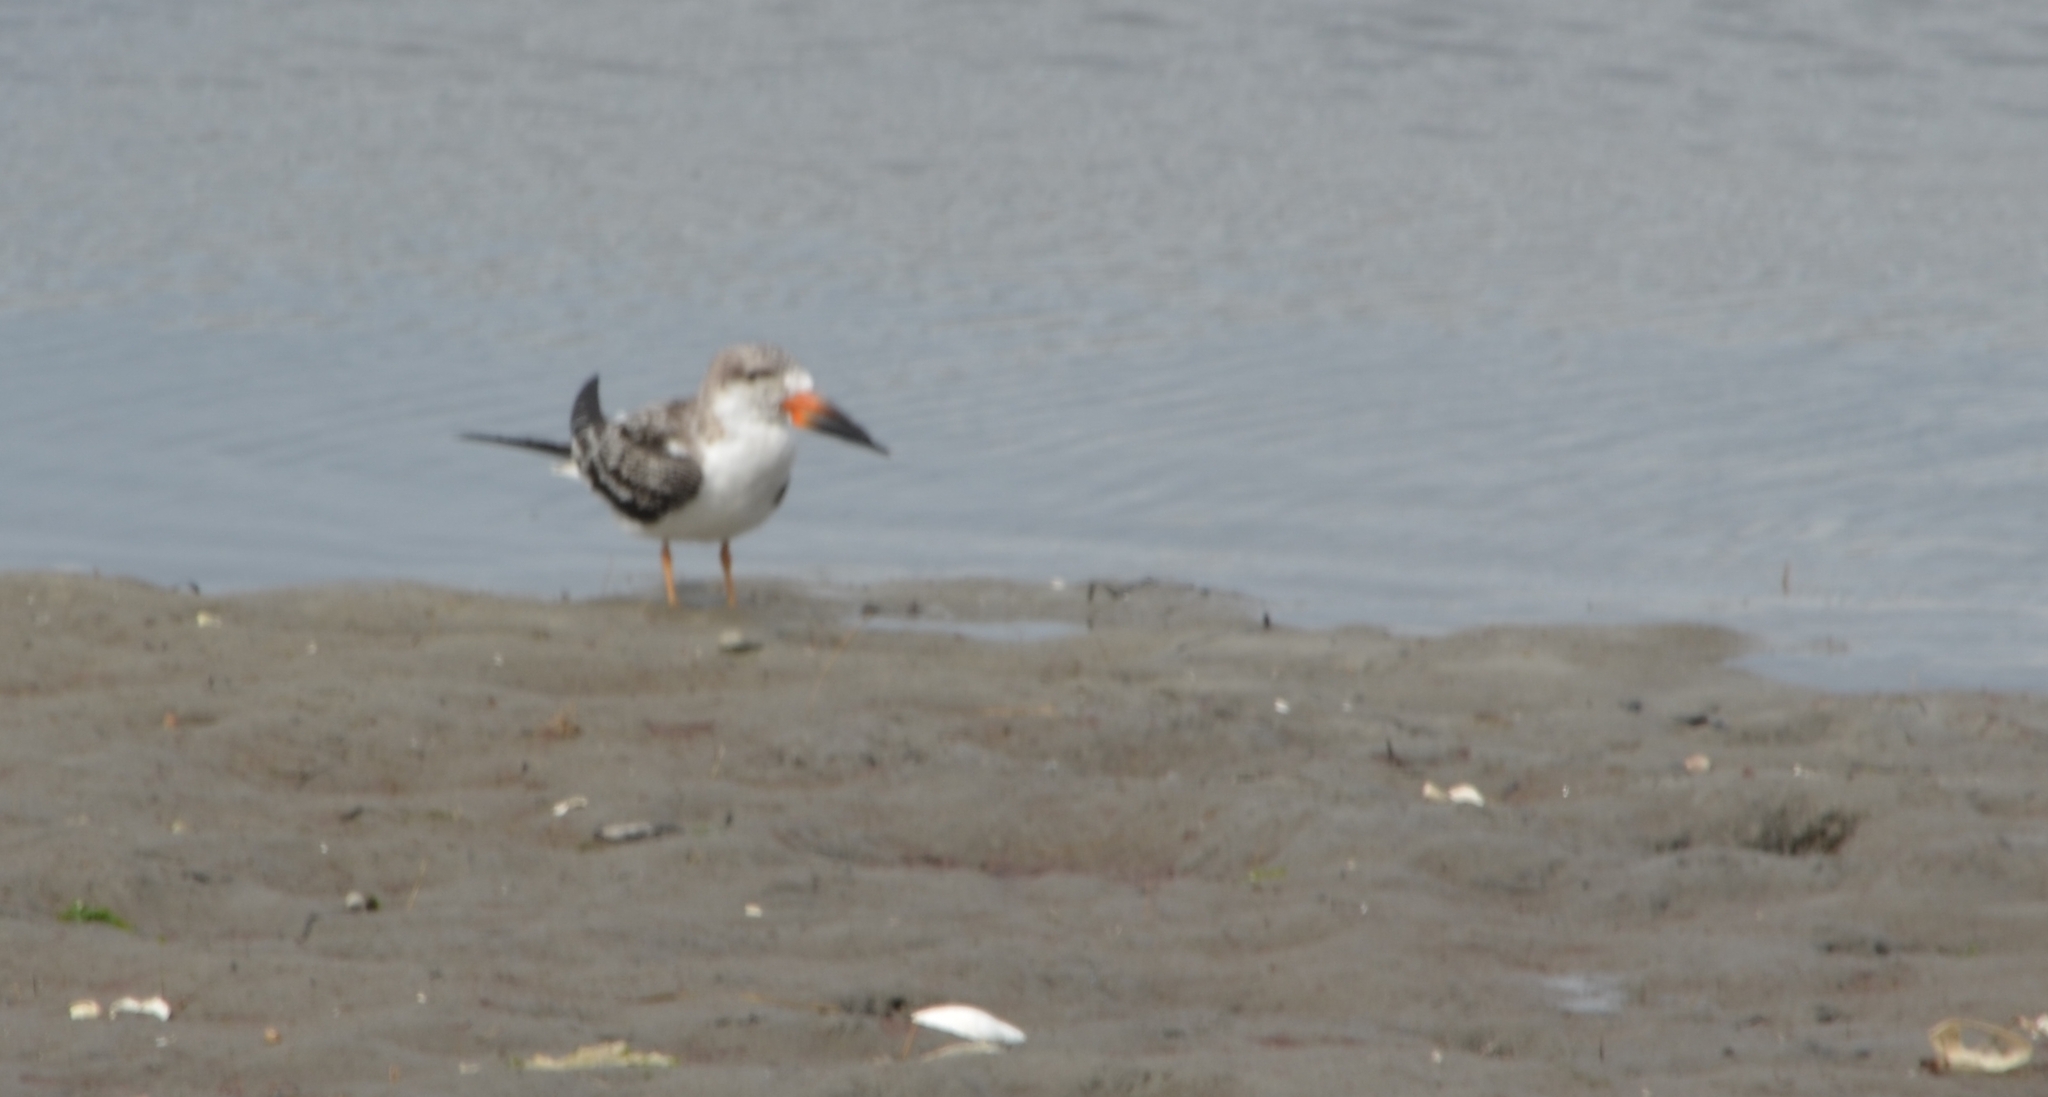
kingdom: Animalia
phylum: Chordata
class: Aves
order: Charadriiformes
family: Laridae
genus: Rynchops
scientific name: Rynchops niger
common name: Black skimmer
